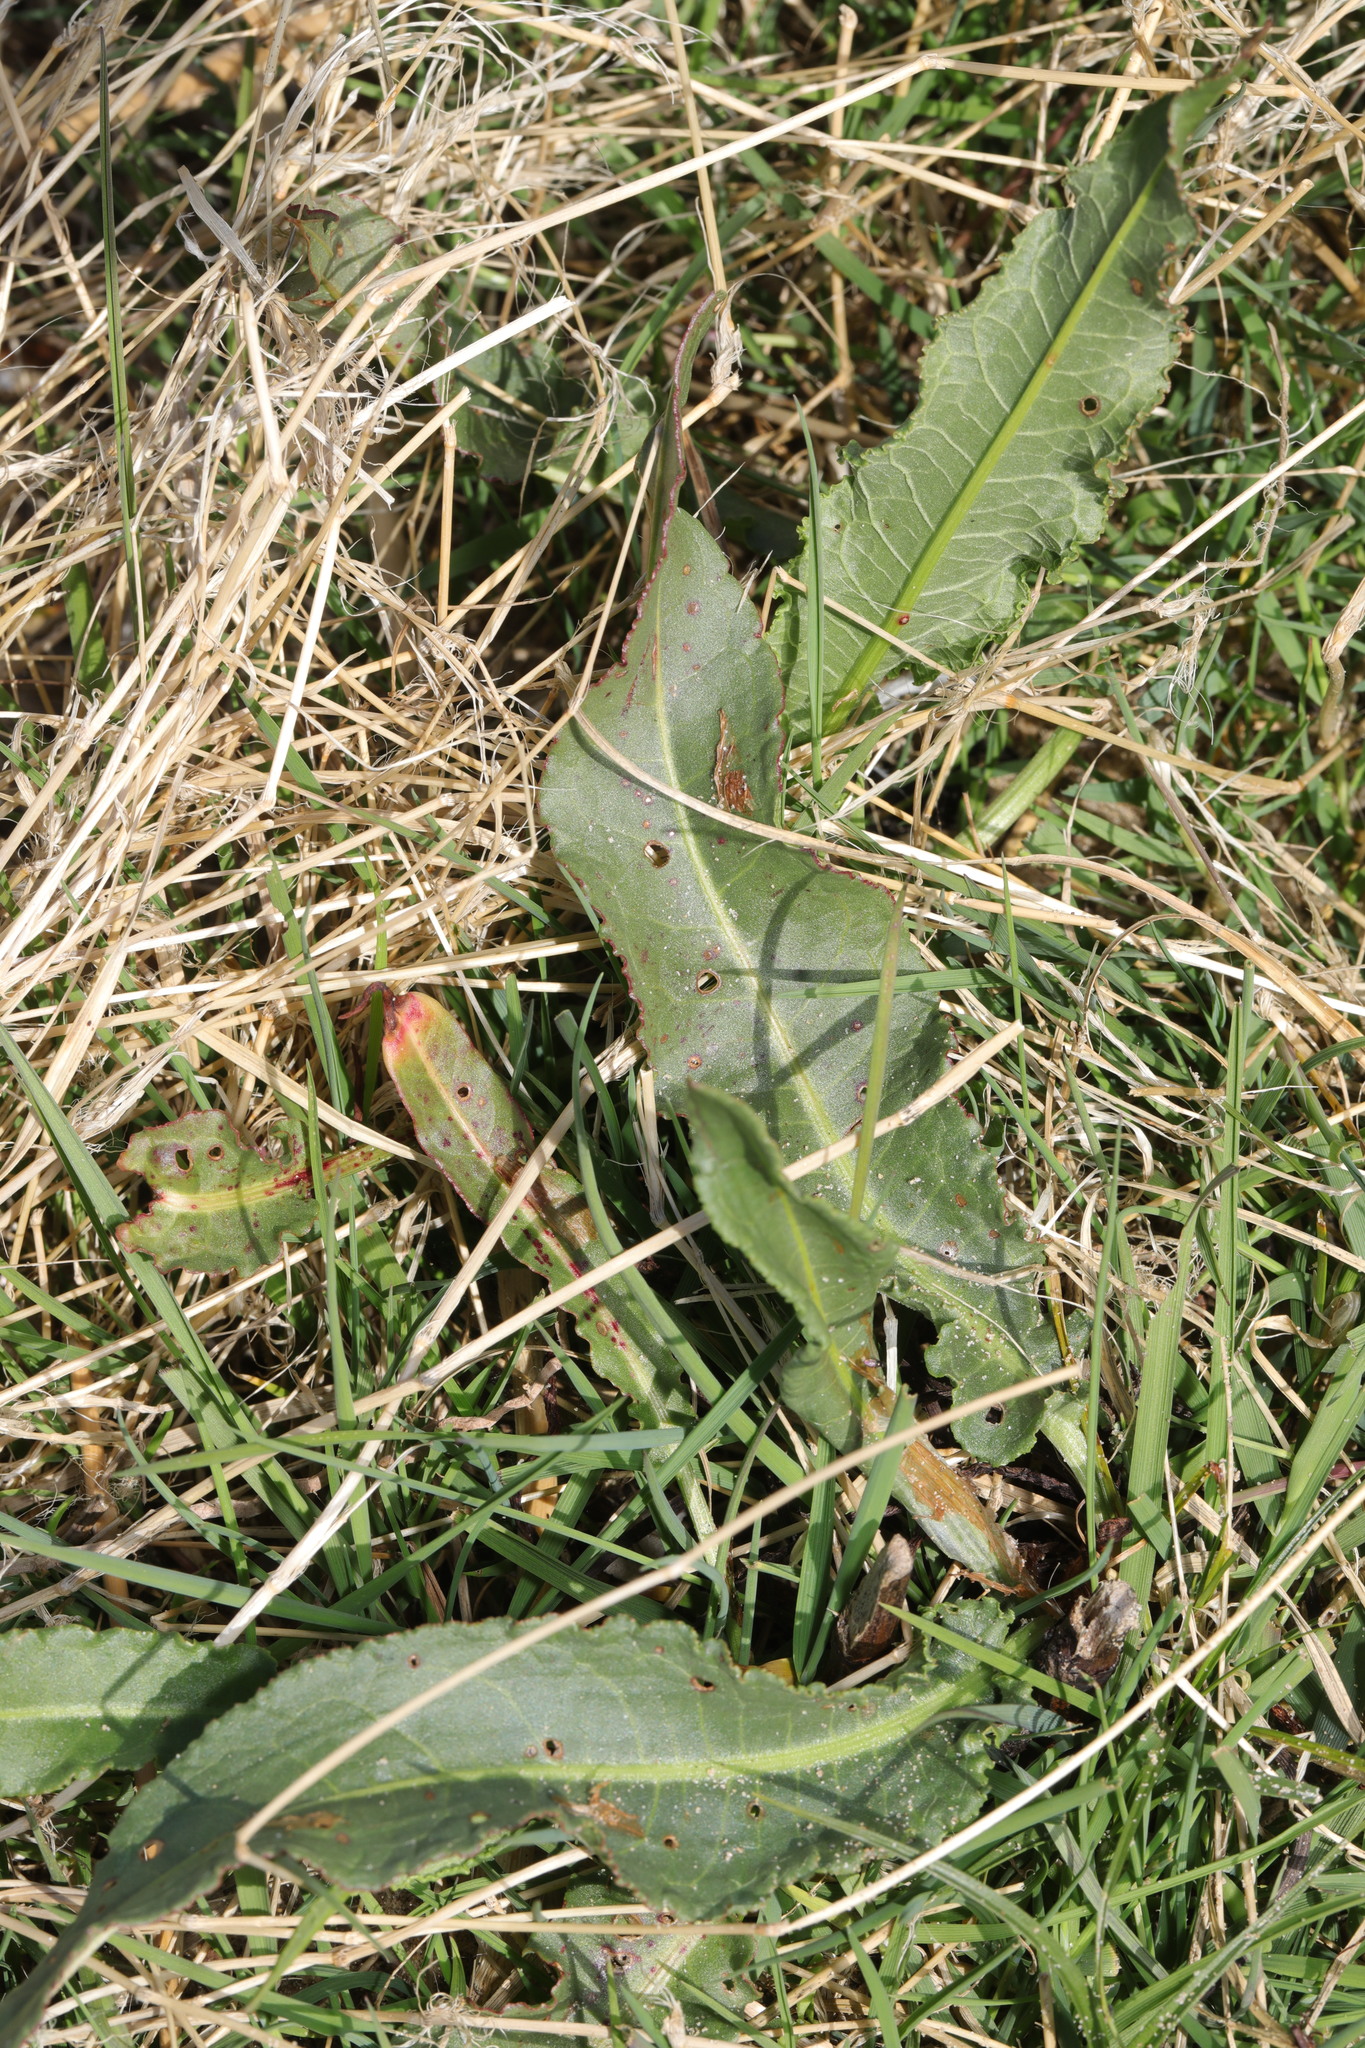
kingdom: Plantae
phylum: Tracheophyta
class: Magnoliopsida
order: Caryophyllales
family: Polygonaceae
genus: Rumex
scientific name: Rumex crispus
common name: Curled dock
